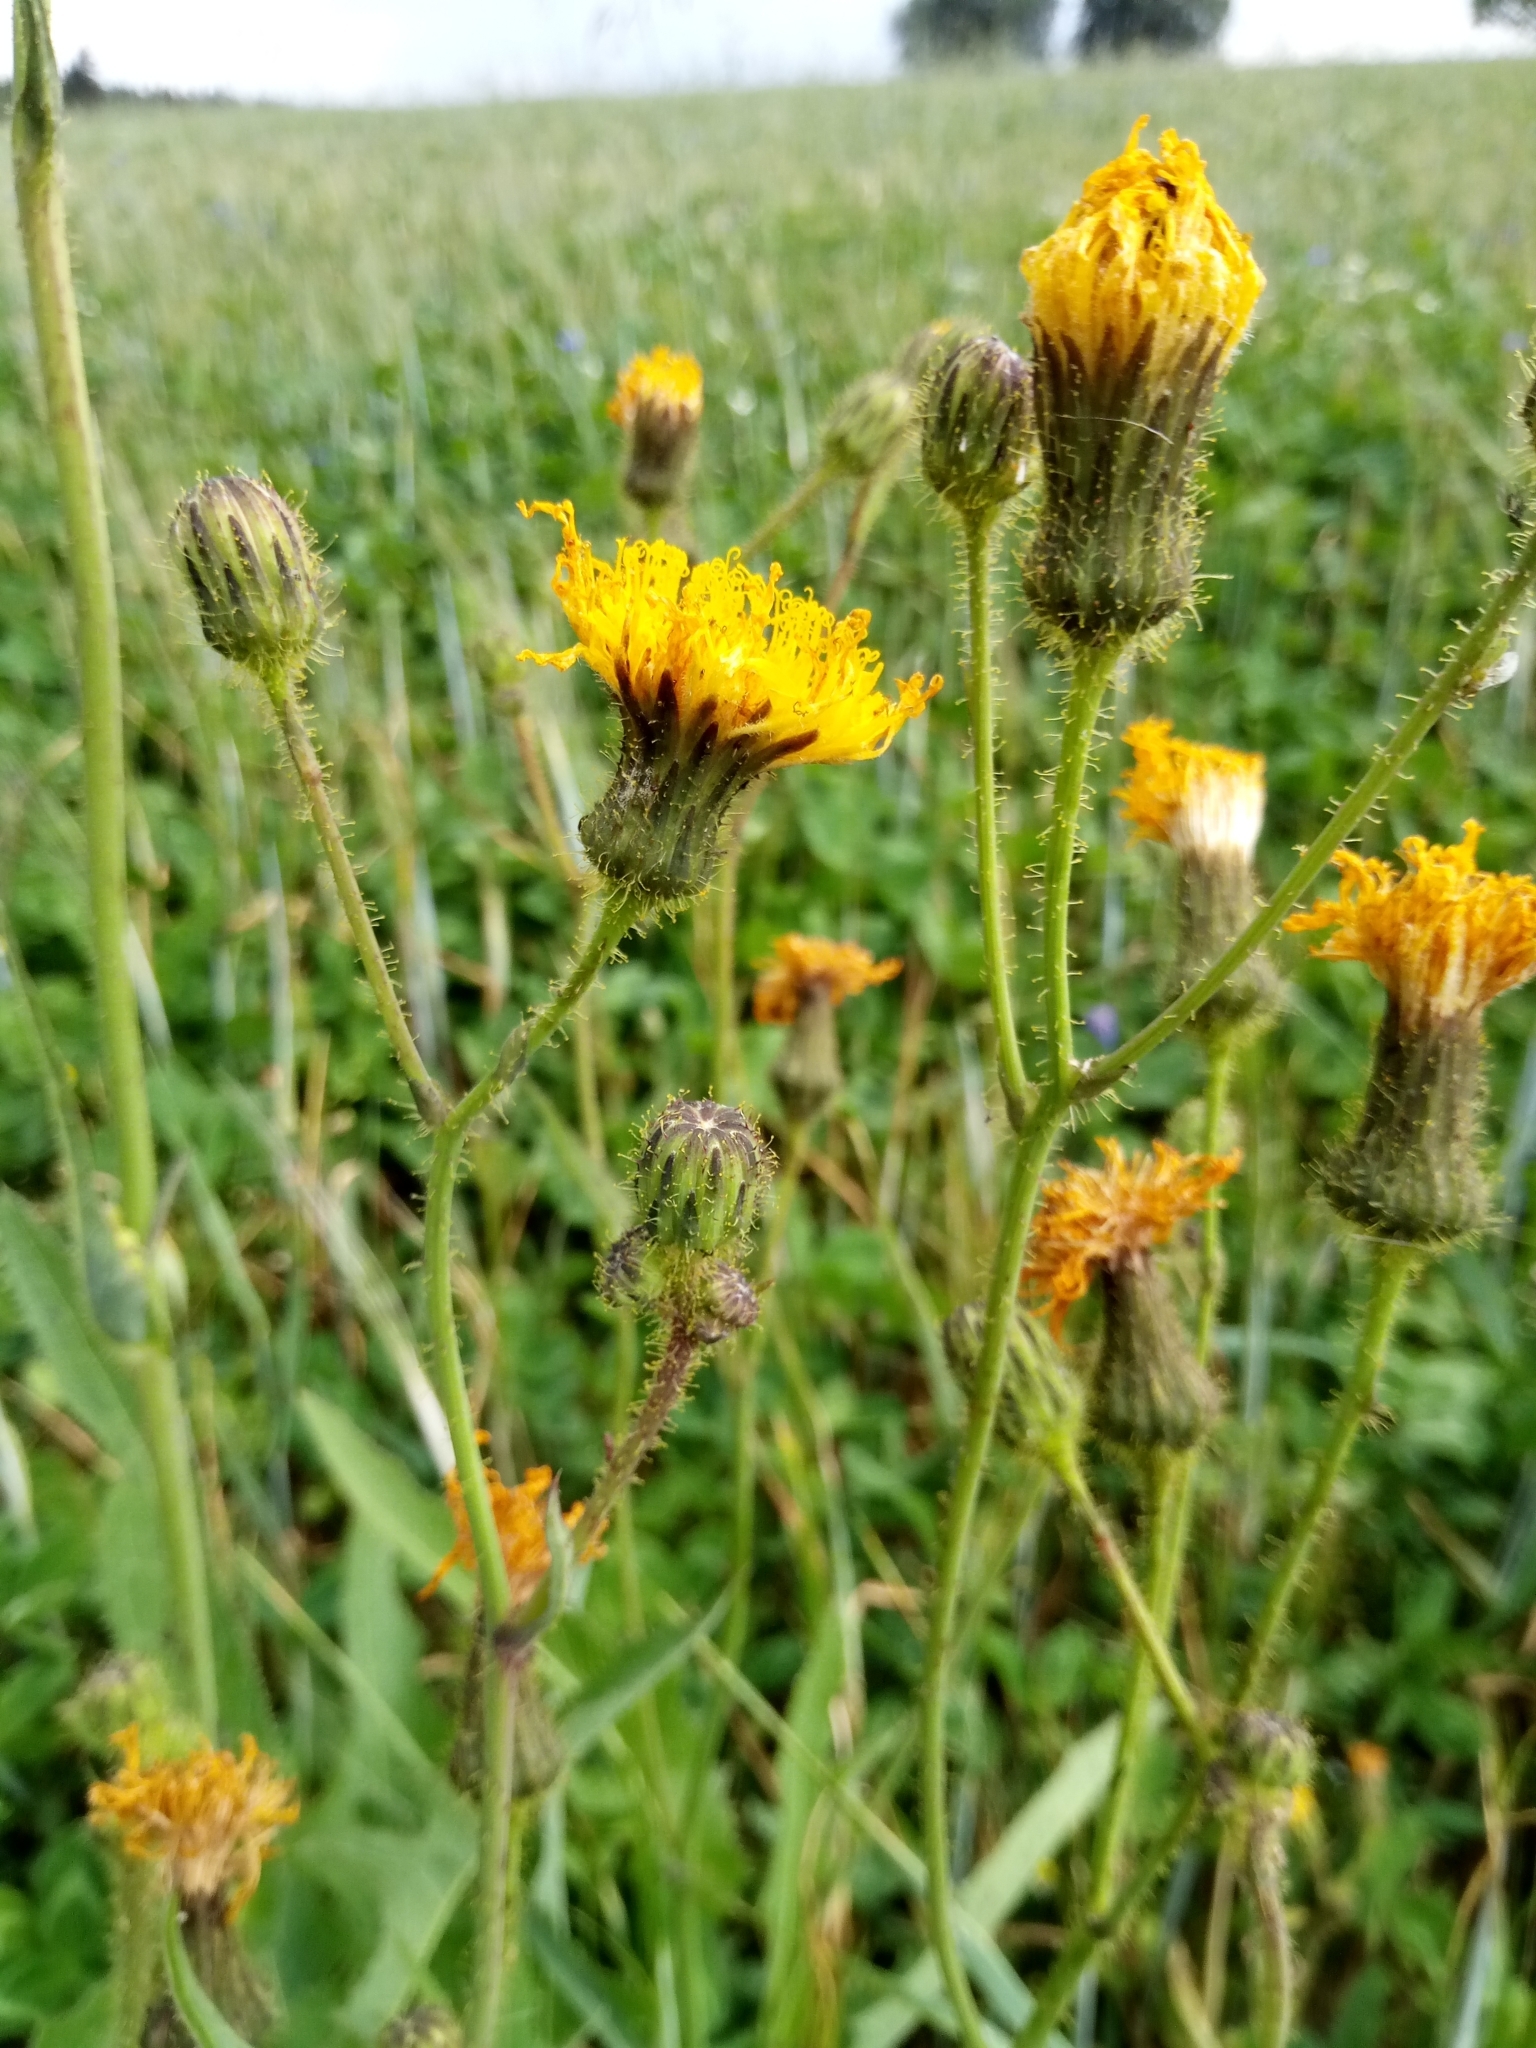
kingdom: Plantae
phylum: Tracheophyta
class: Magnoliopsida
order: Asterales
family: Asteraceae
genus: Sonchus
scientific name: Sonchus arvensis
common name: Perennial sow-thistle
